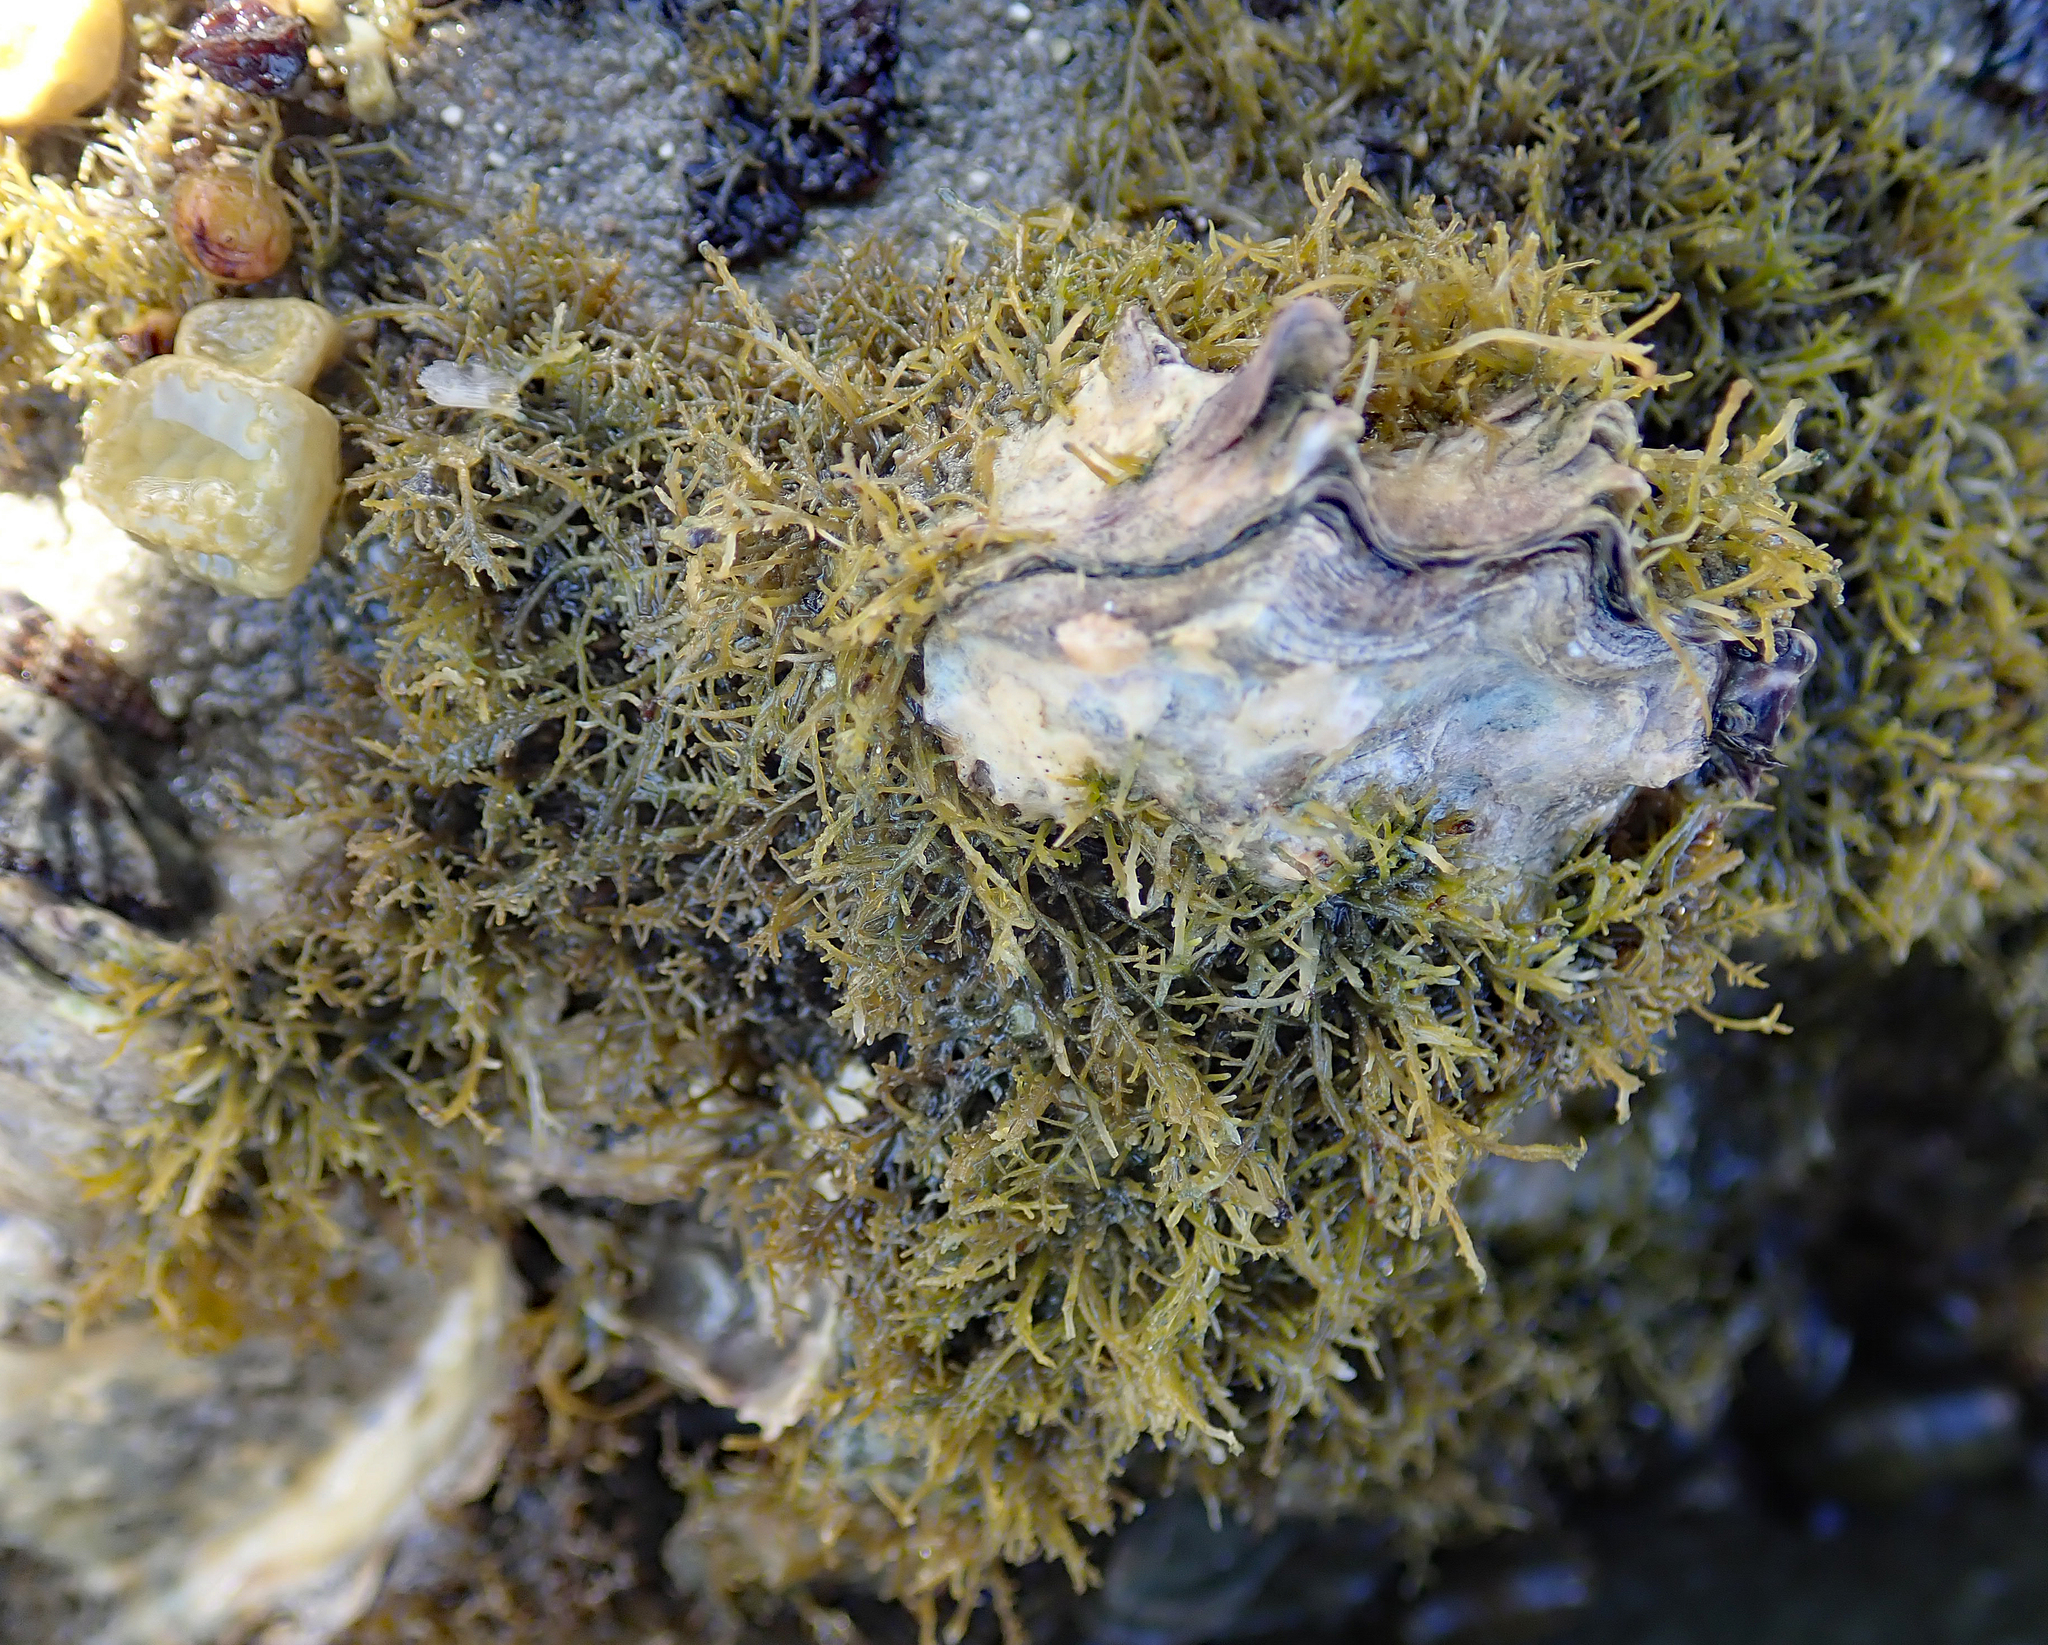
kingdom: Plantae
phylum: Rhodophyta
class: Florideophyceae
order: Gelidiales
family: Gelidiaceae
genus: Capreolia
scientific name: Capreolia implexa
